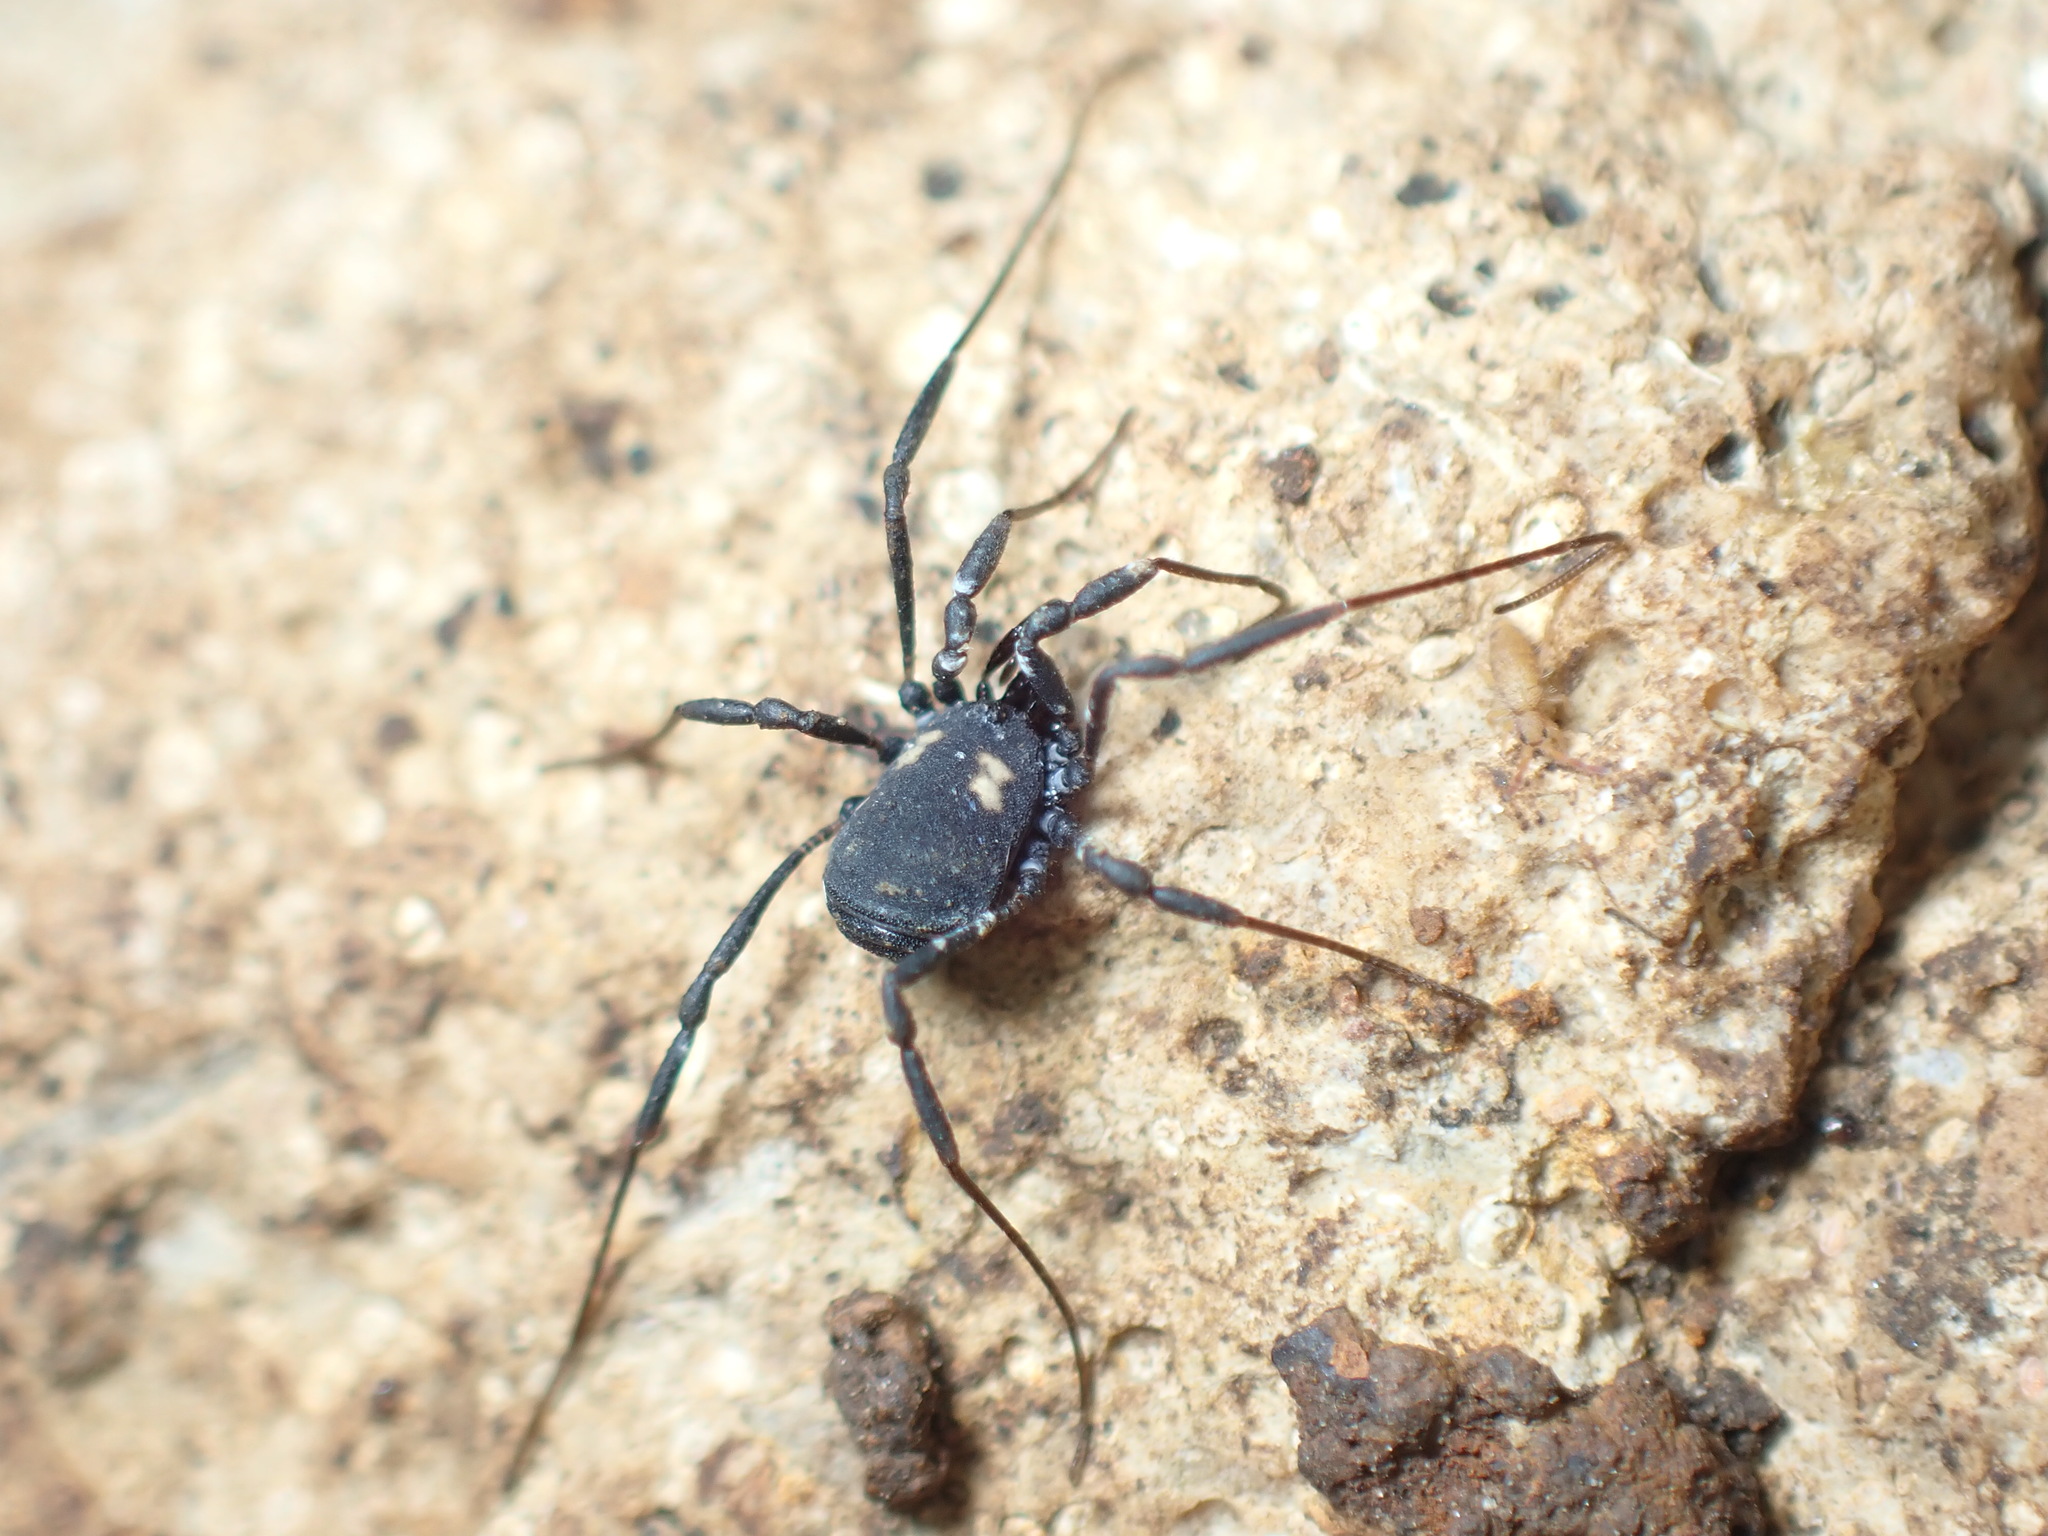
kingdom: Animalia
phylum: Arthropoda
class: Arachnida
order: Opiliones
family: Nemastomatidae
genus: Nemastoma
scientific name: Nemastoma bimaculatum
